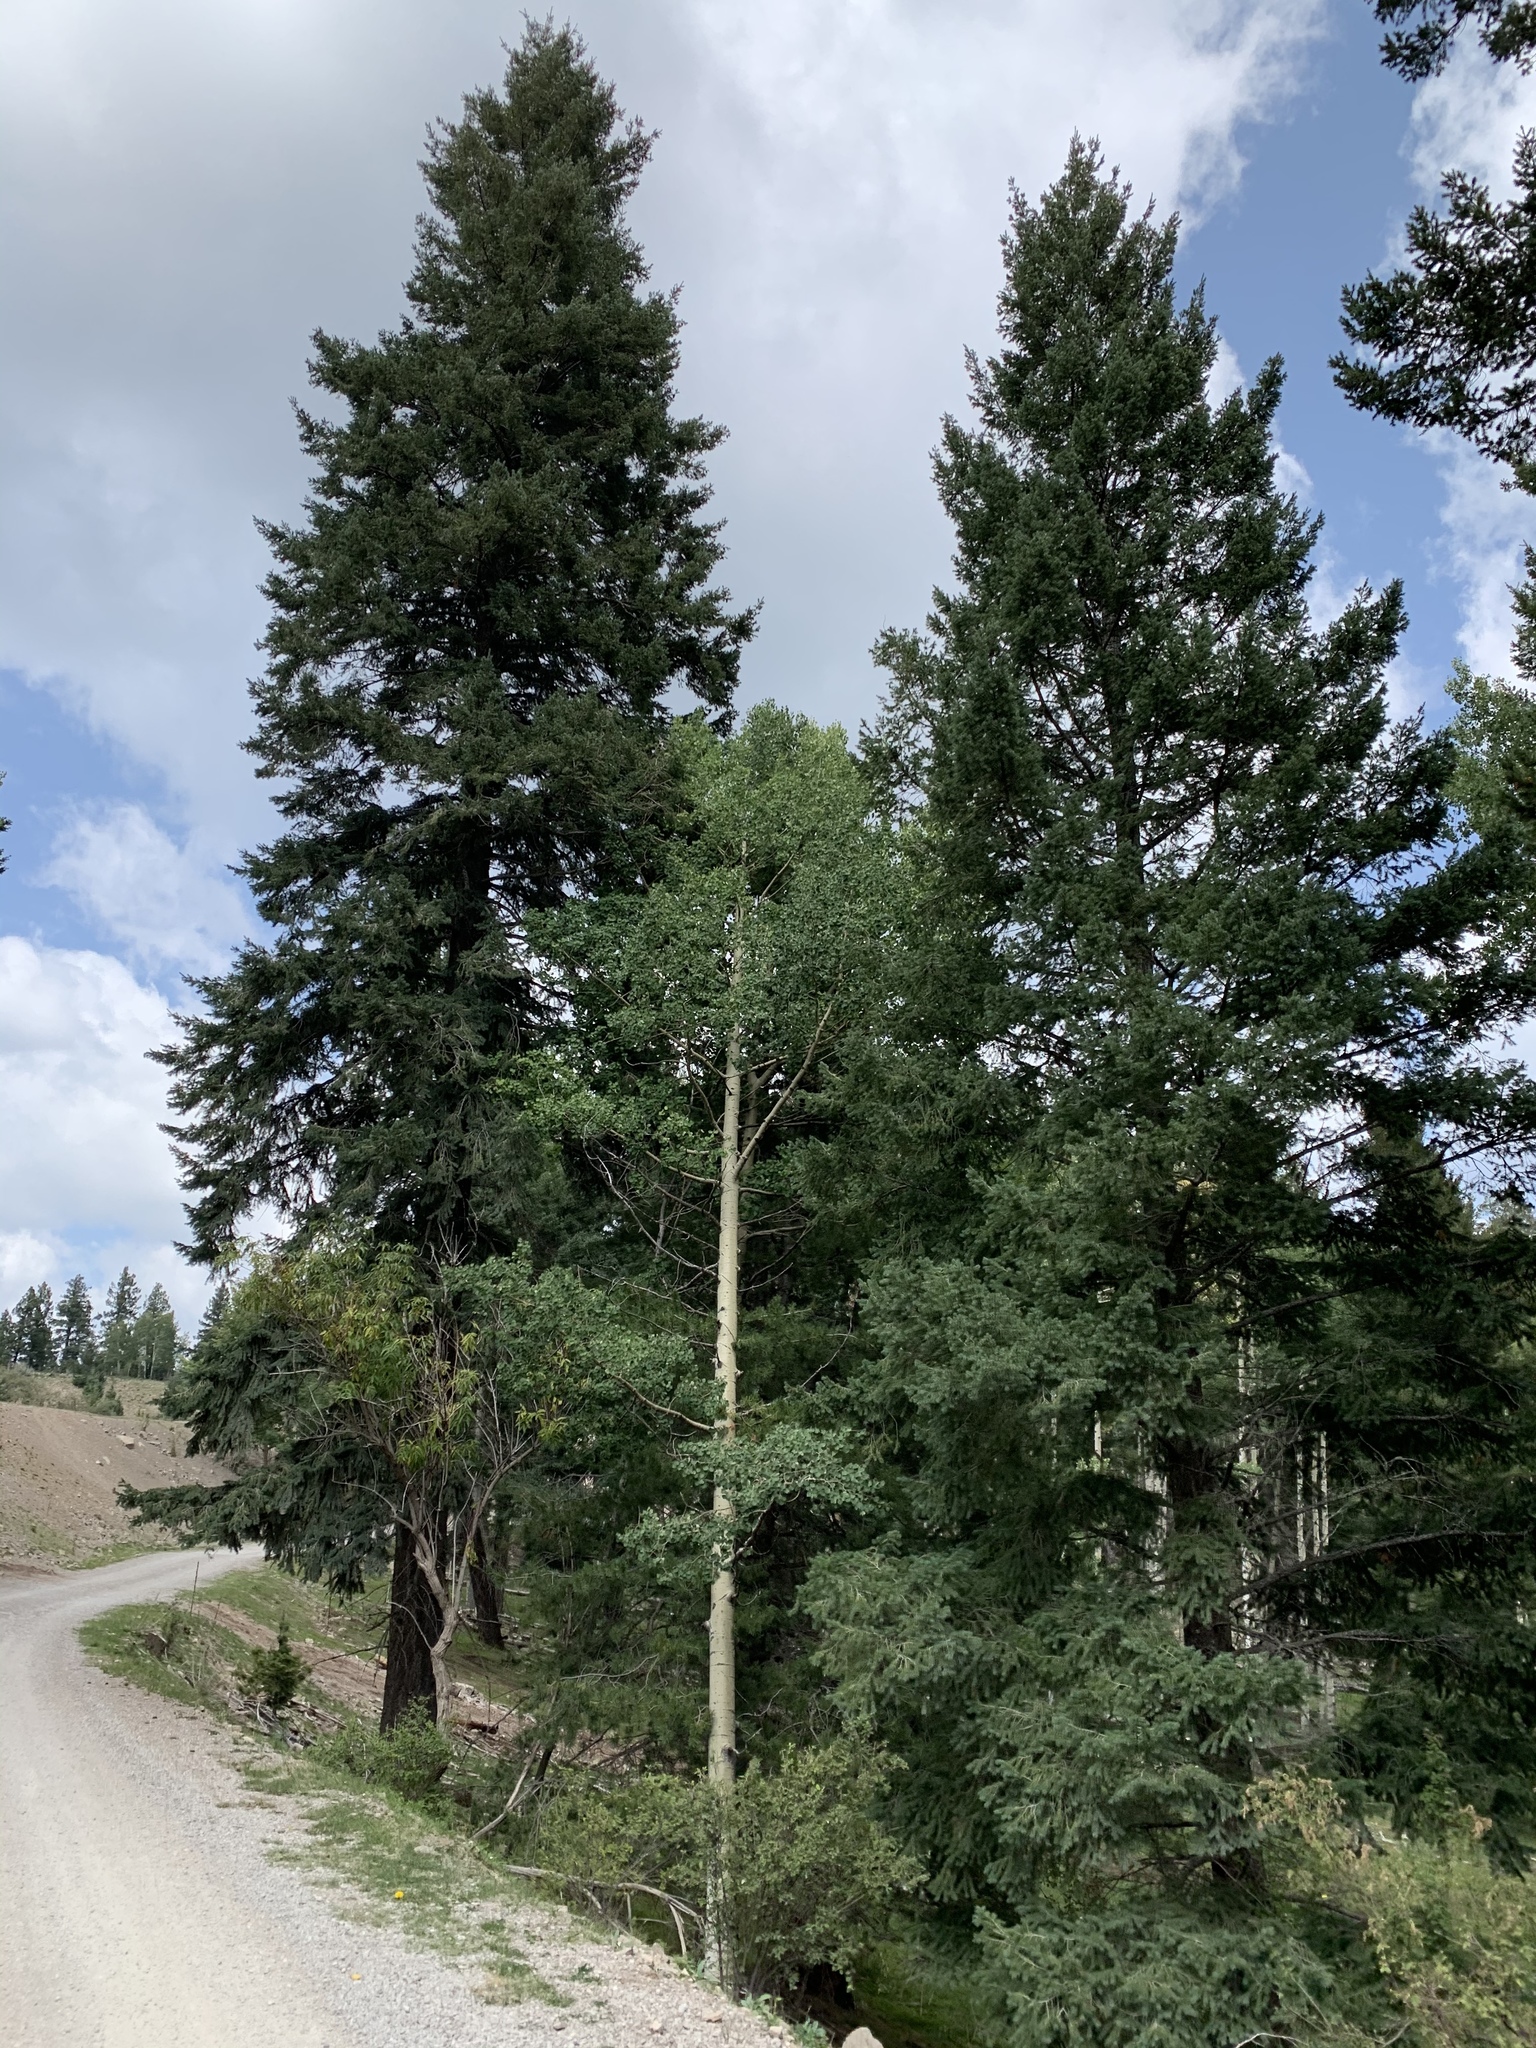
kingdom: Plantae
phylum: Tracheophyta
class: Magnoliopsida
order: Malpighiales
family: Salicaceae
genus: Populus
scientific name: Populus tremuloides
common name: Quaking aspen
